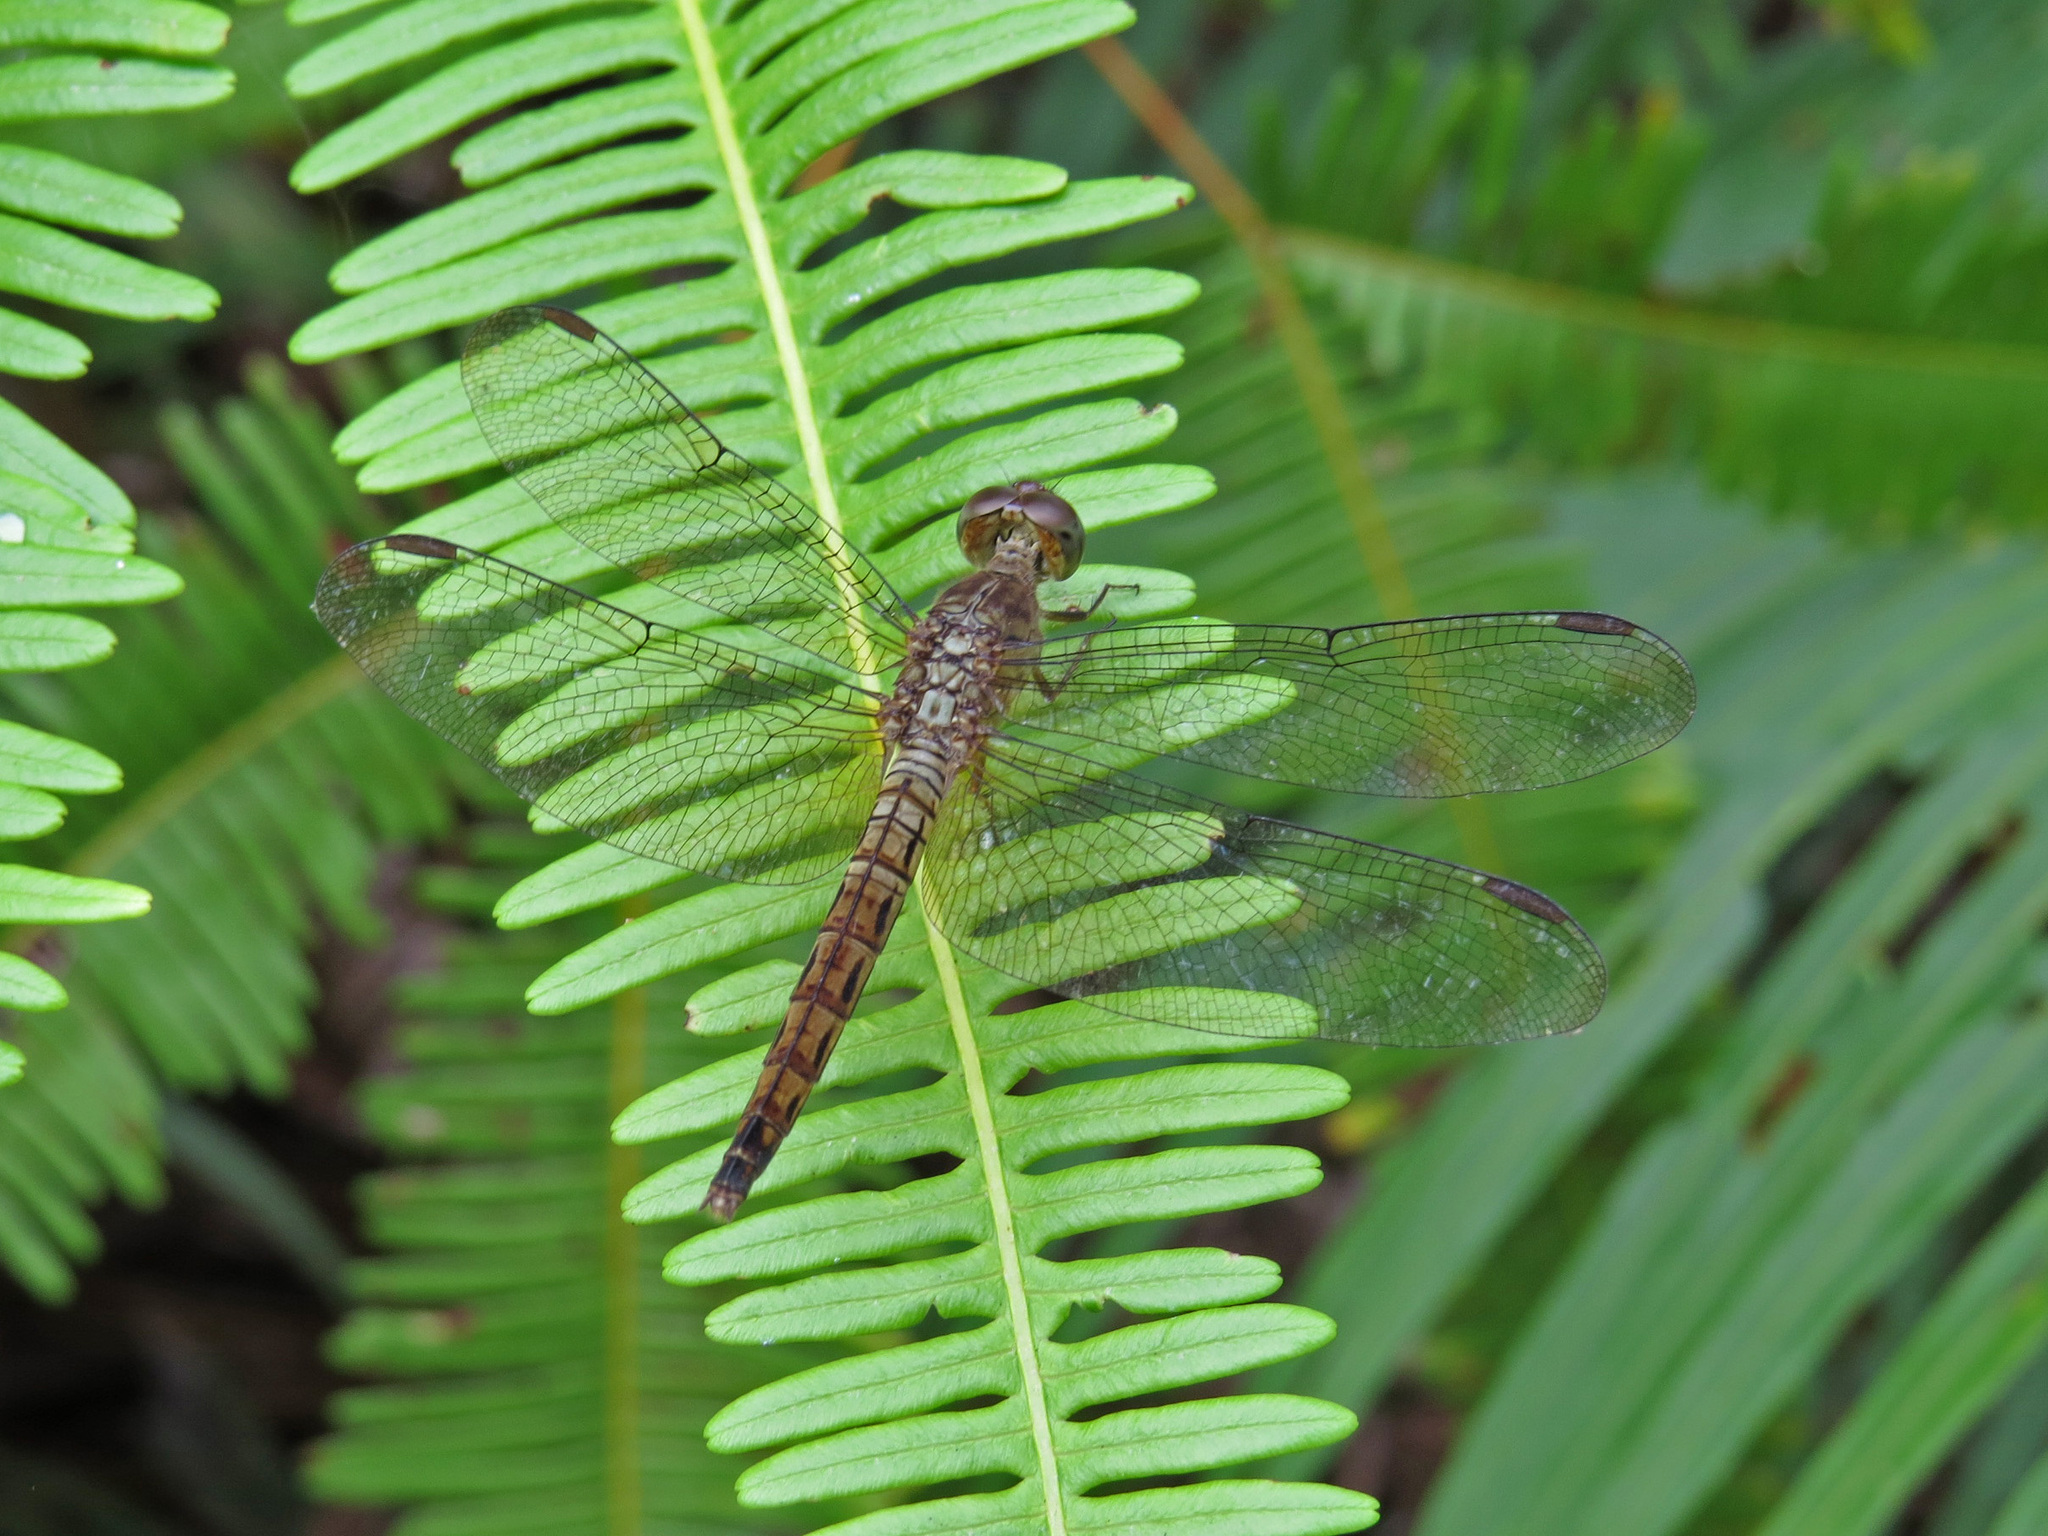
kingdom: Animalia
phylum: Arthropoda
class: Insecta
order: Odonata
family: Libellulidae
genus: Neurothemis
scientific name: Neurothemis fluctuans
